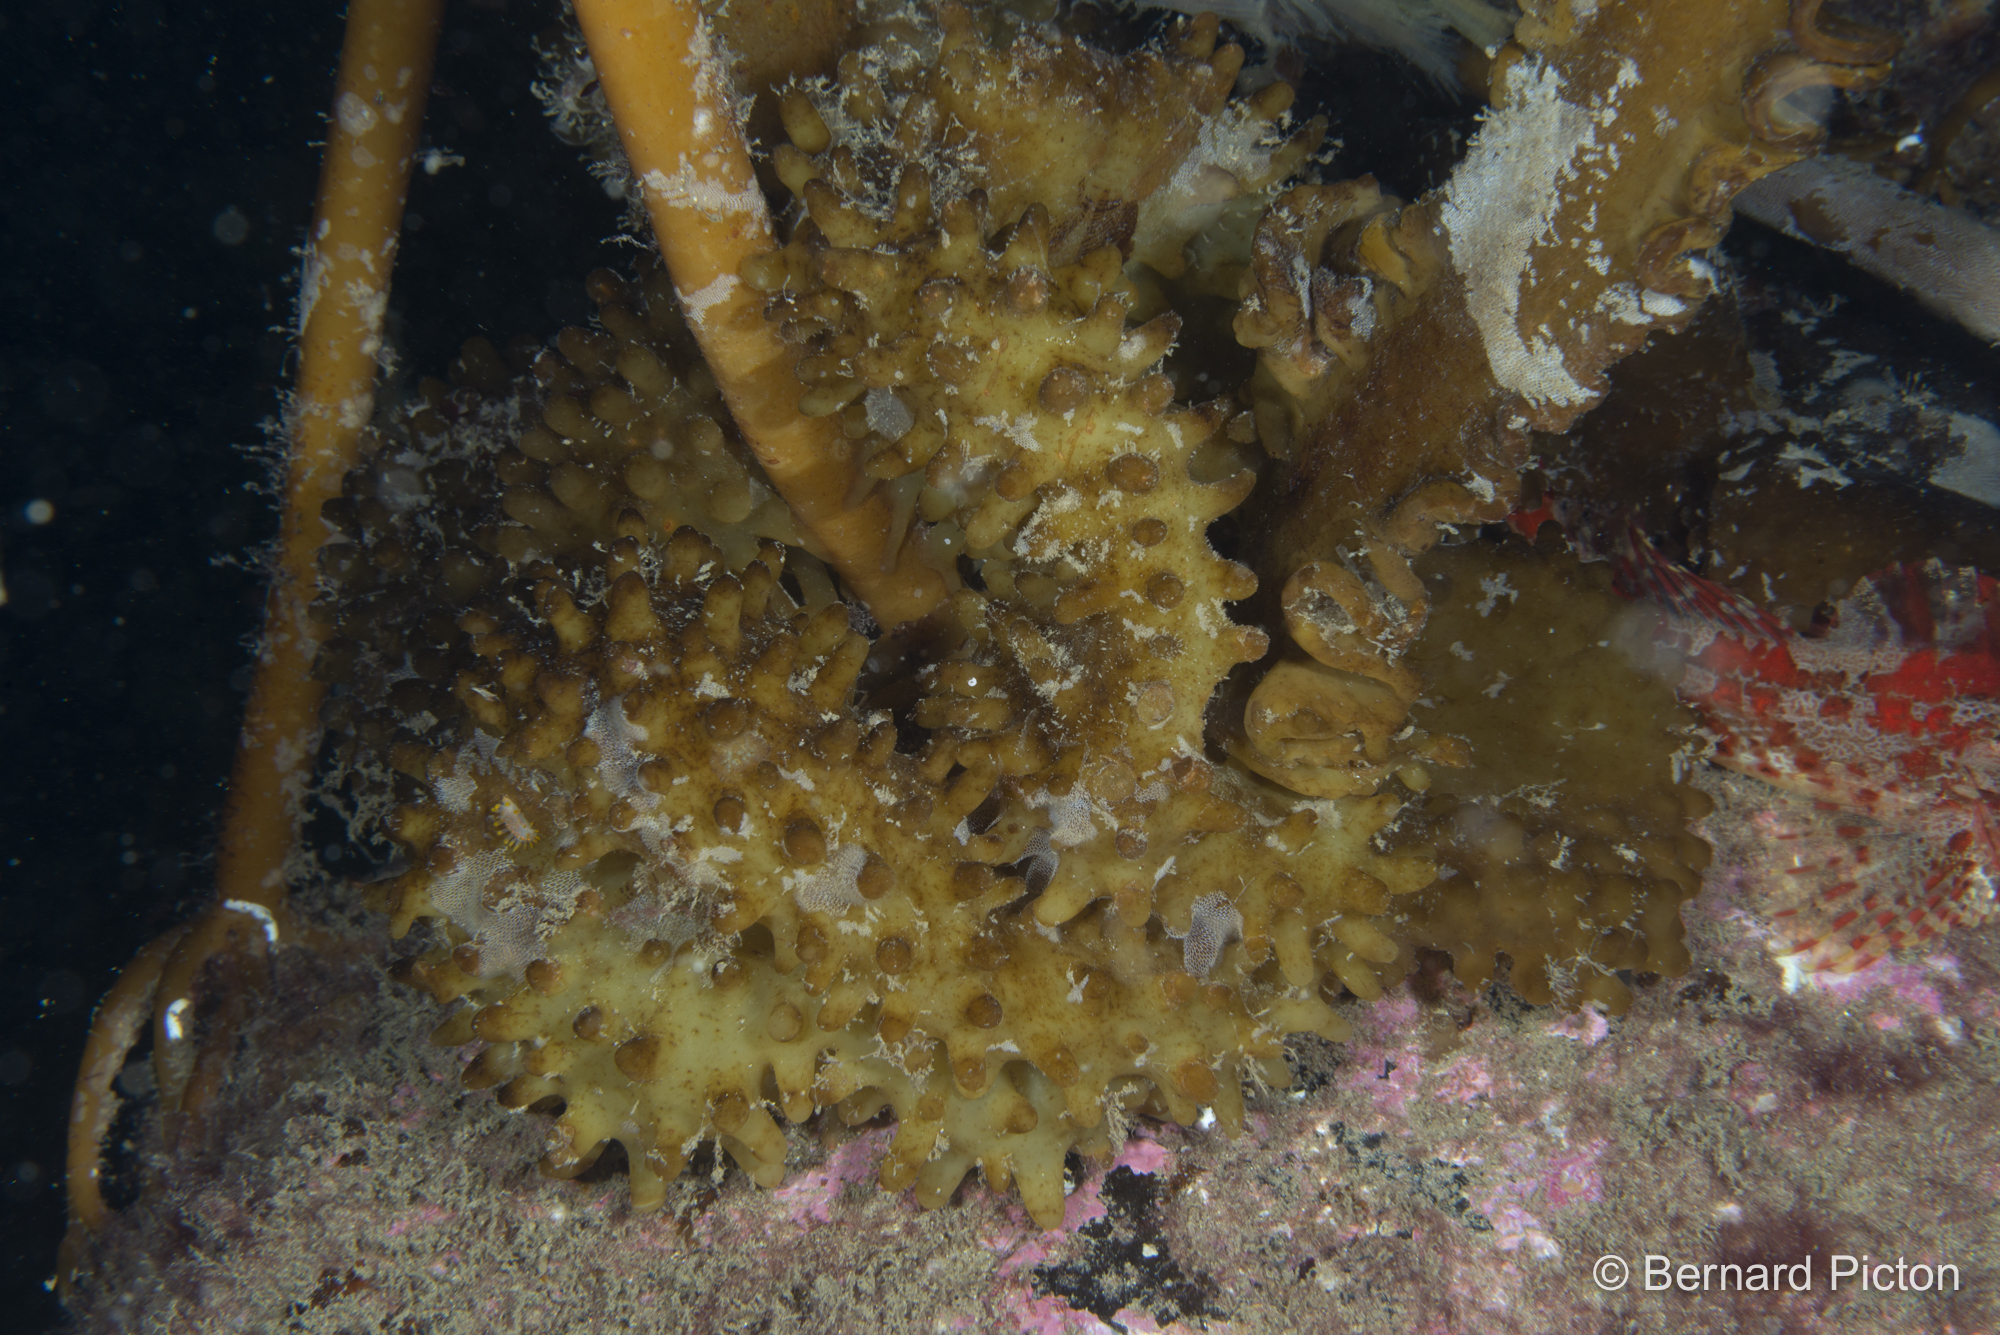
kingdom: Chromista
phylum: Ochrophyta
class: Phaeophyceae
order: Tilopteridales
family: Phyllariaceae
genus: Saccorhiza
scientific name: Saccorhiza polyschides
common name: Furbelows
